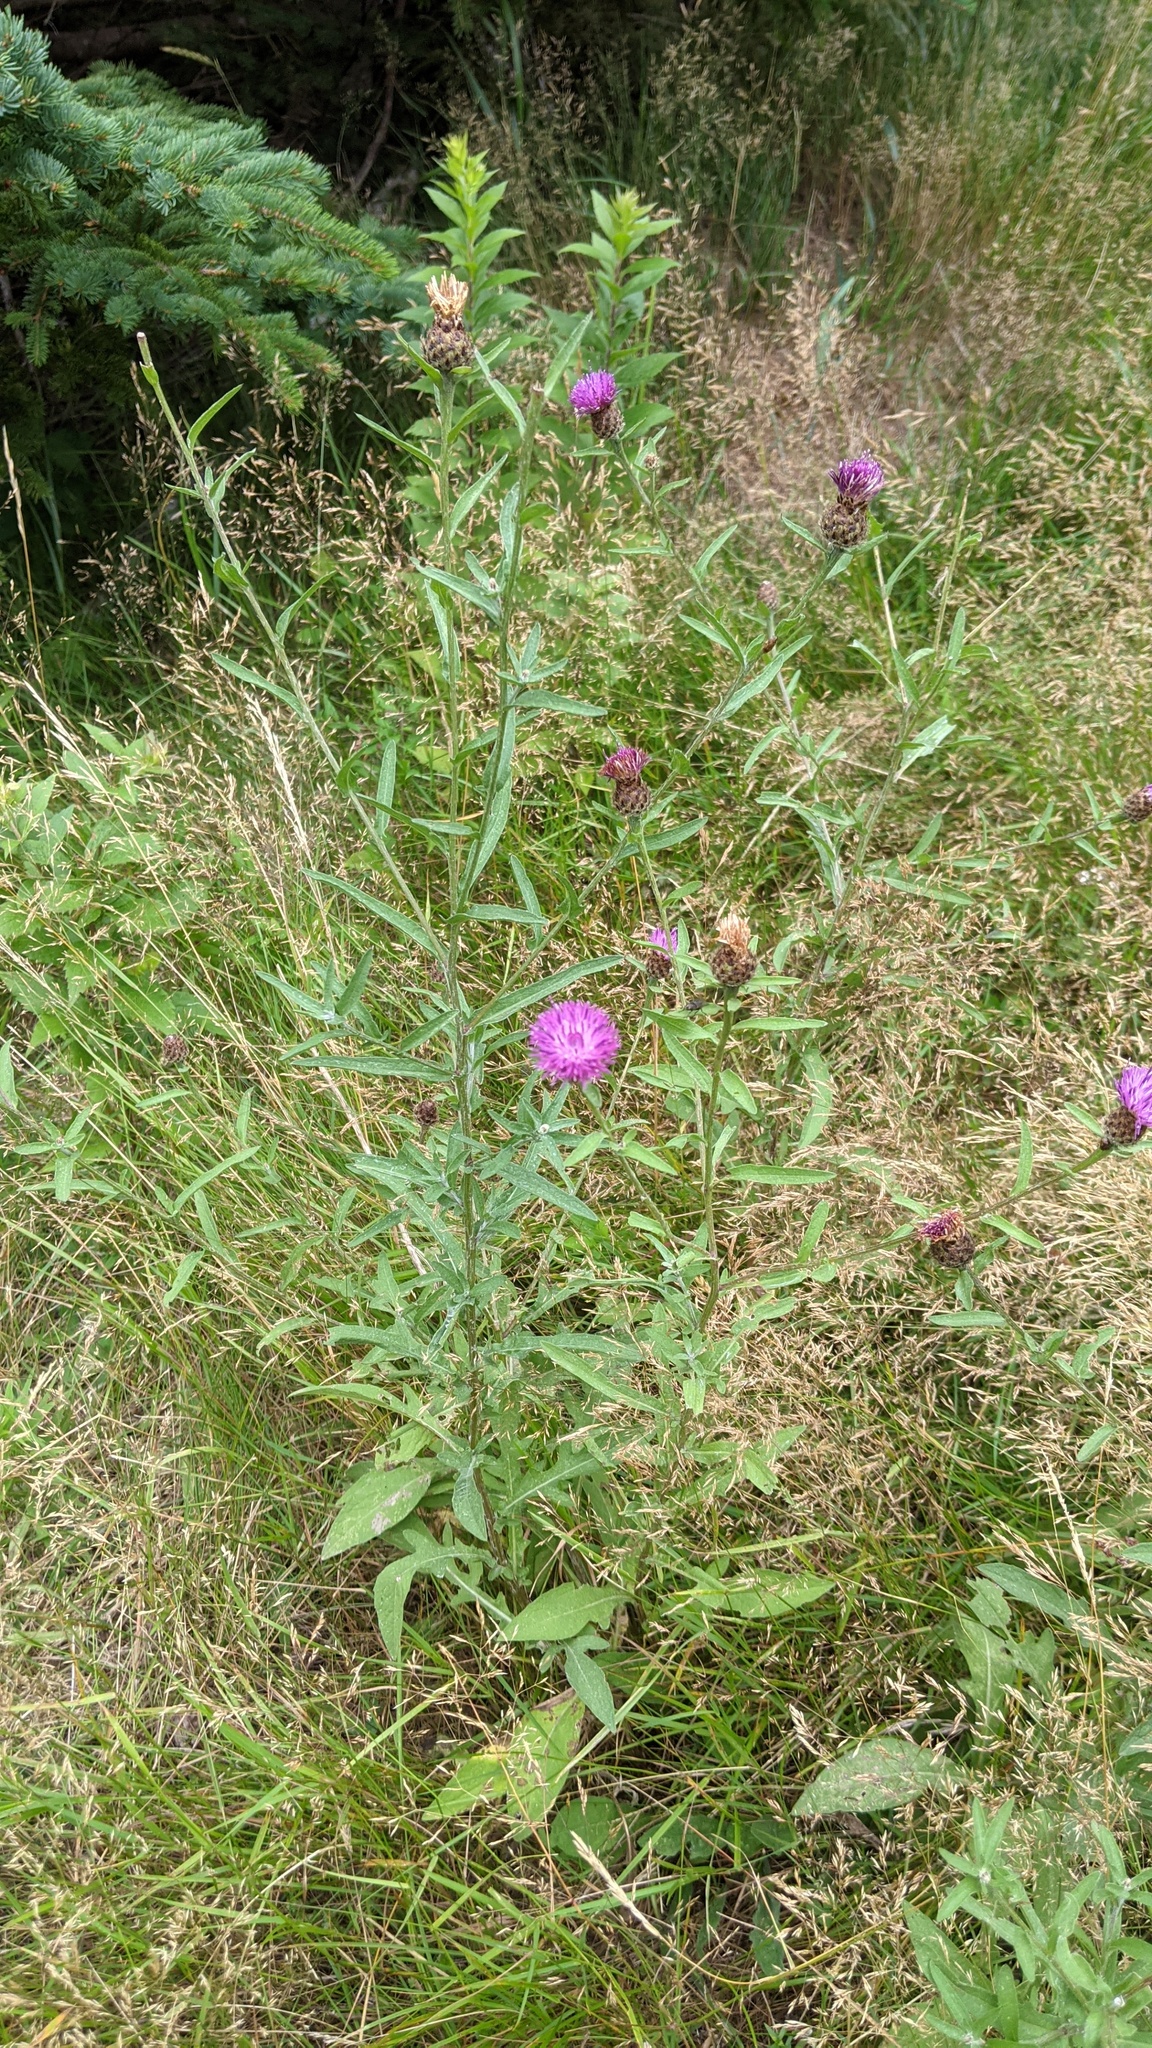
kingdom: Plantae
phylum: Tracheophyta
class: Magnoliopsida
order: Asterales
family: Asteraceae
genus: Centaurea
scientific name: Centaurea nigra
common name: Lesser knapweed
